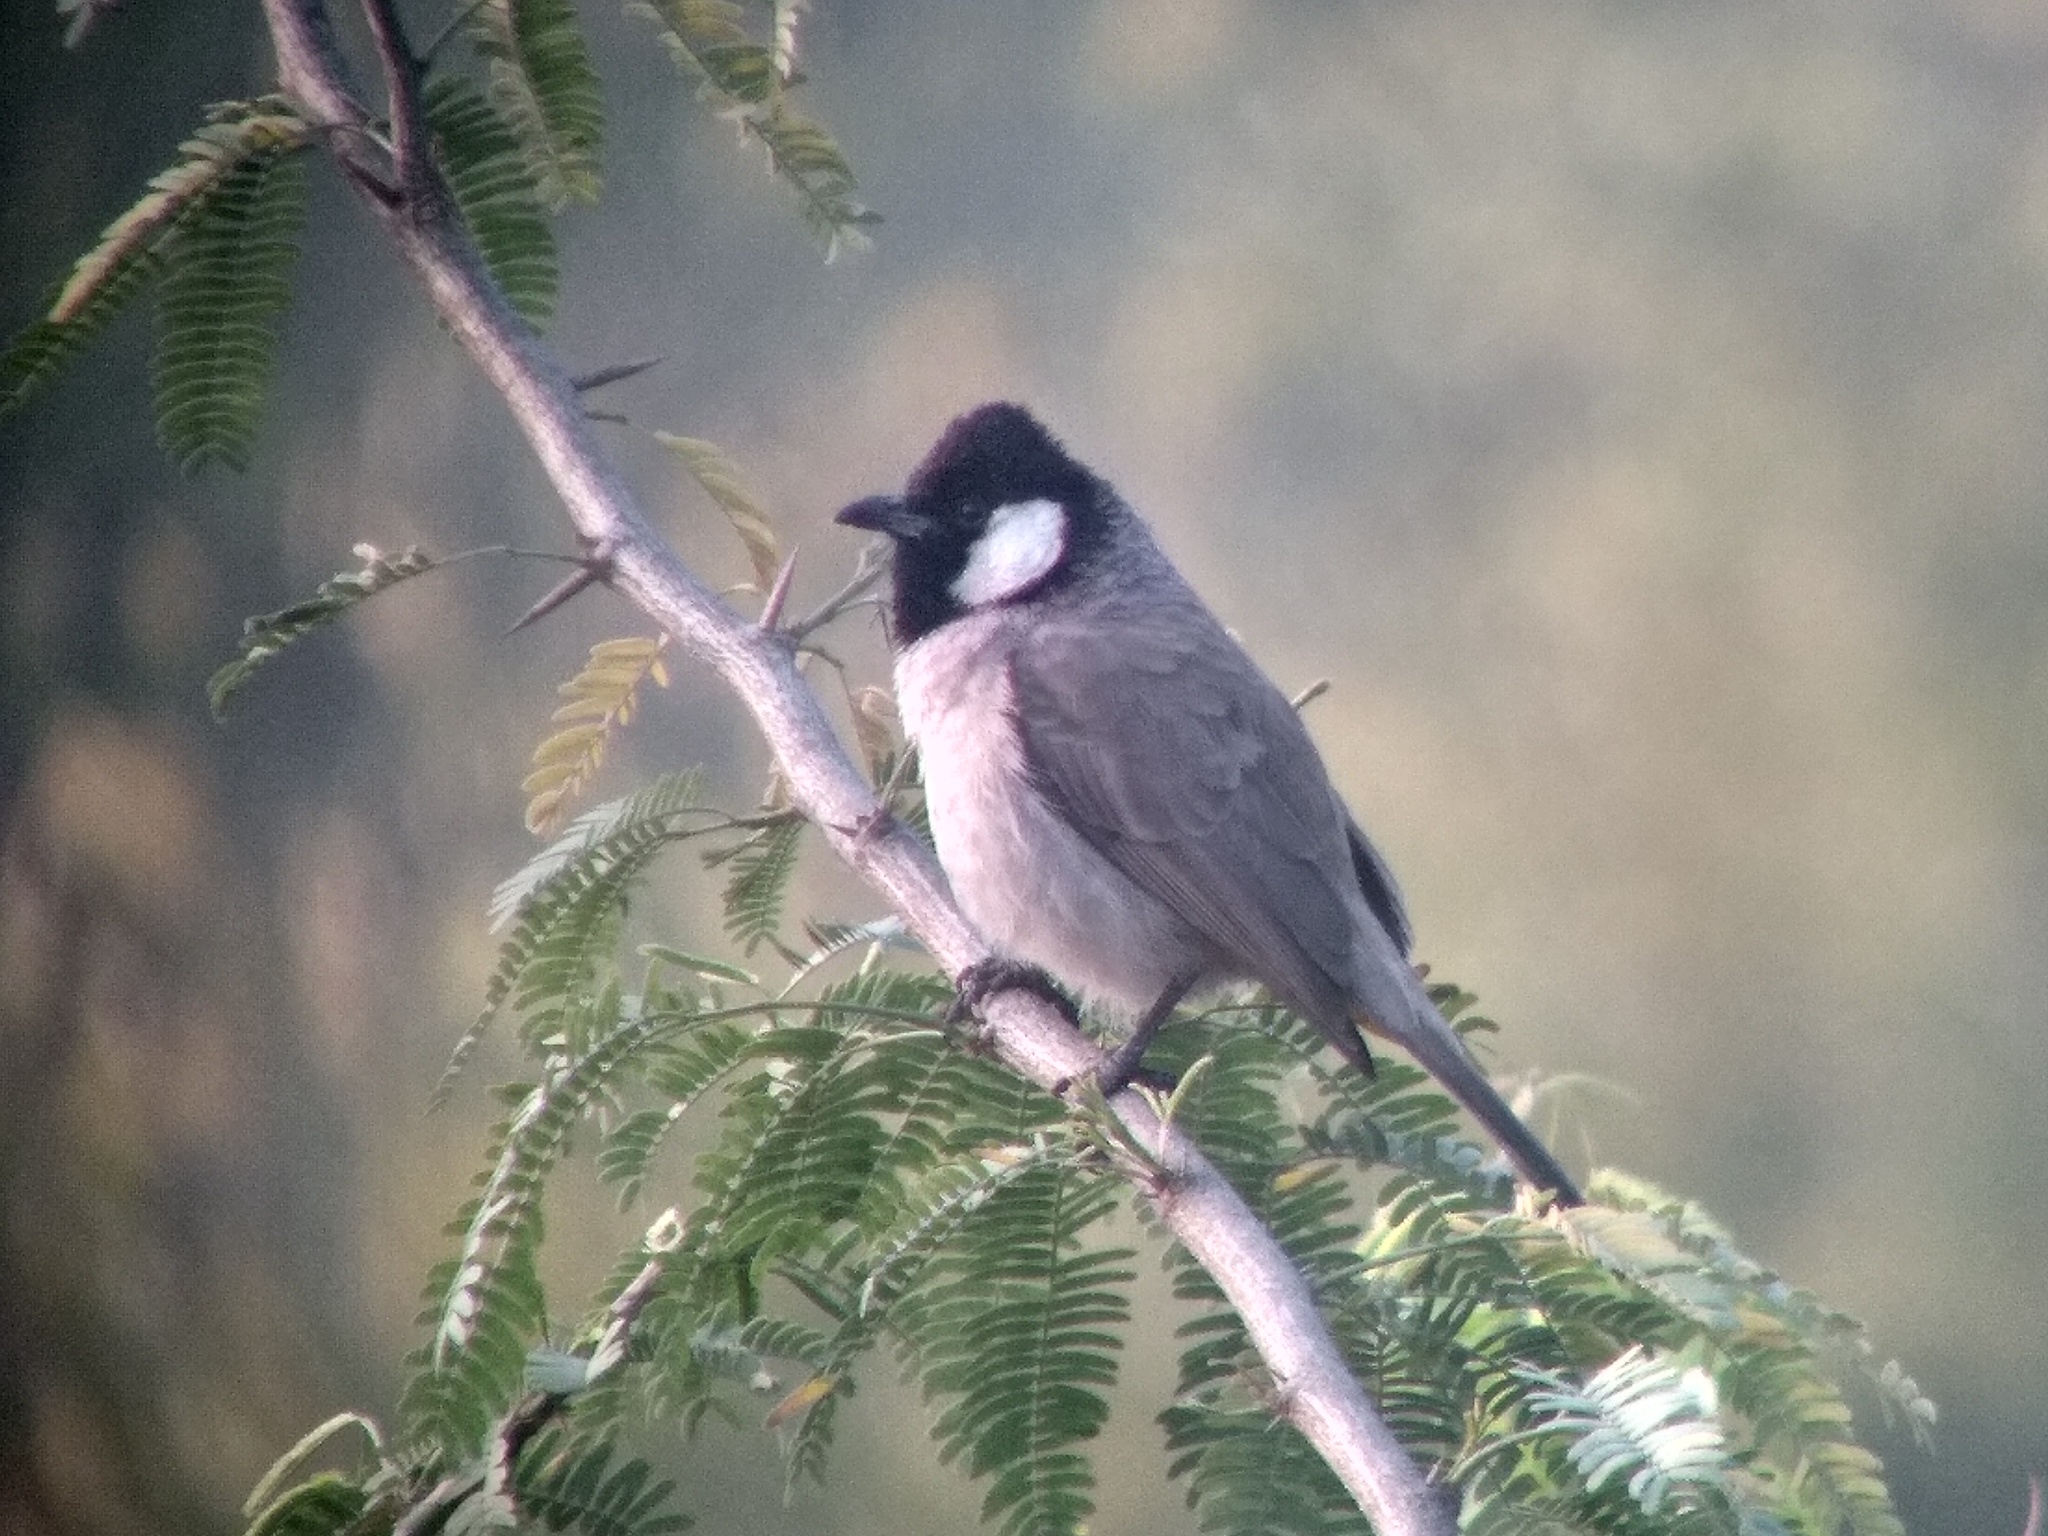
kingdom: Animalia
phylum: Chordata
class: Aves
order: Passeriformes
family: Pycnonotidae
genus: Pycnonotus
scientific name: Pycnonotus leucotis
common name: White-eared bulbul
